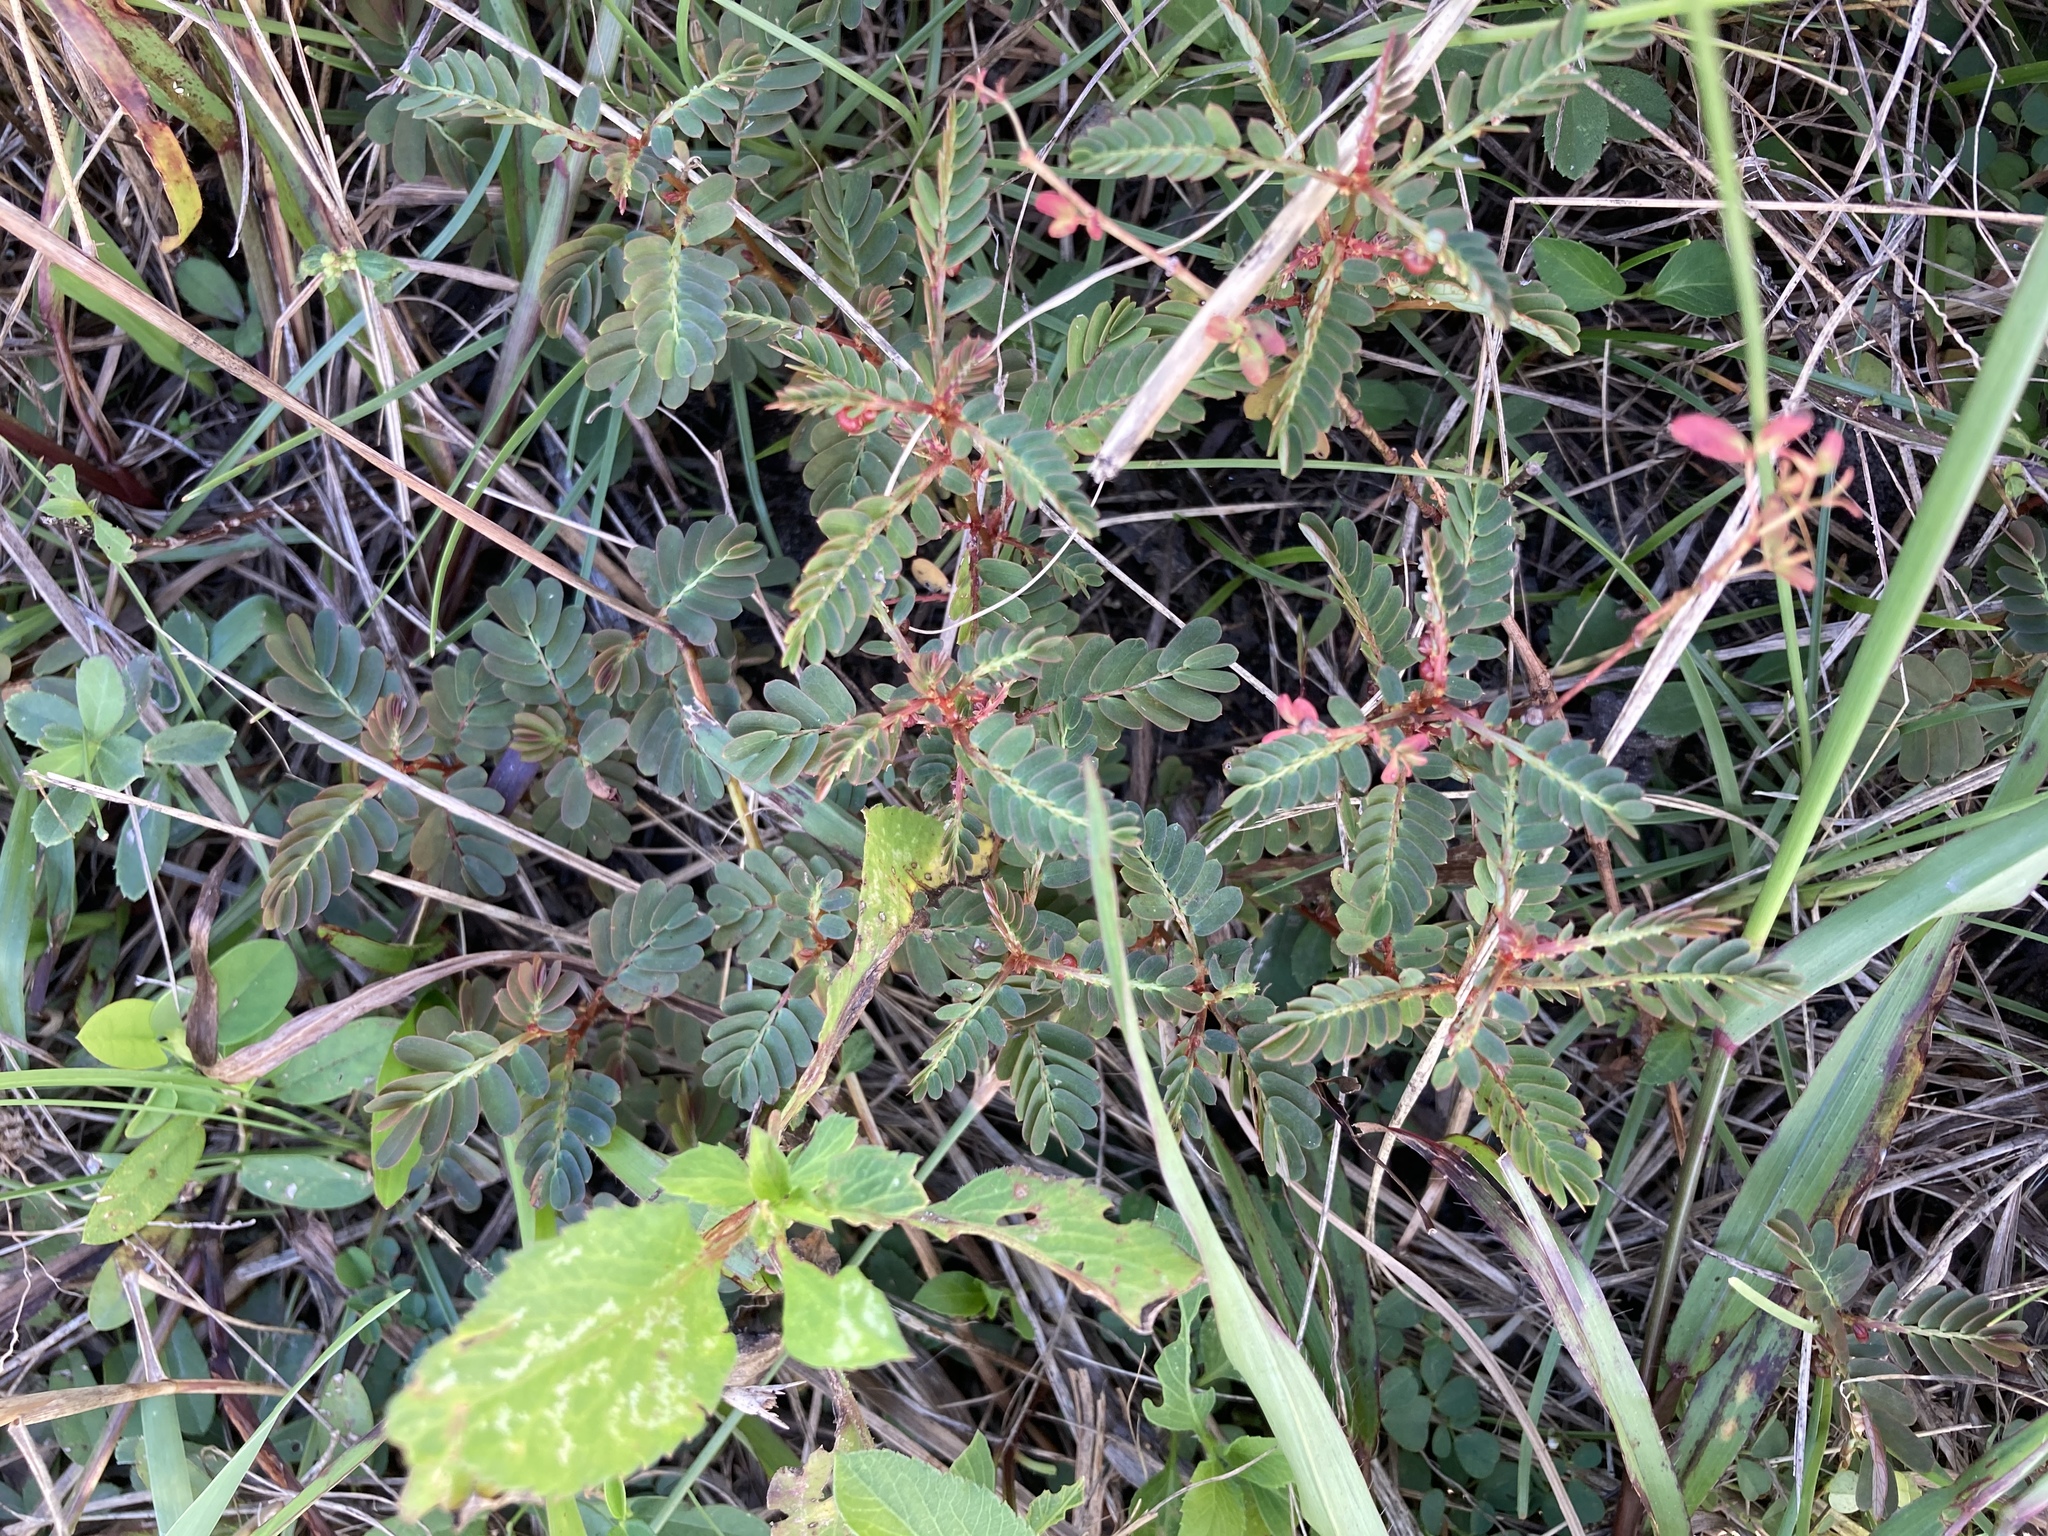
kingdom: Plantae
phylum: Tracheophyta
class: Magnoliopsida
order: Malpighiales
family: Phyllanthaceae
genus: Phyllanthus
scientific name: Phyllanthus urinaria
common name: Chamber bitter
